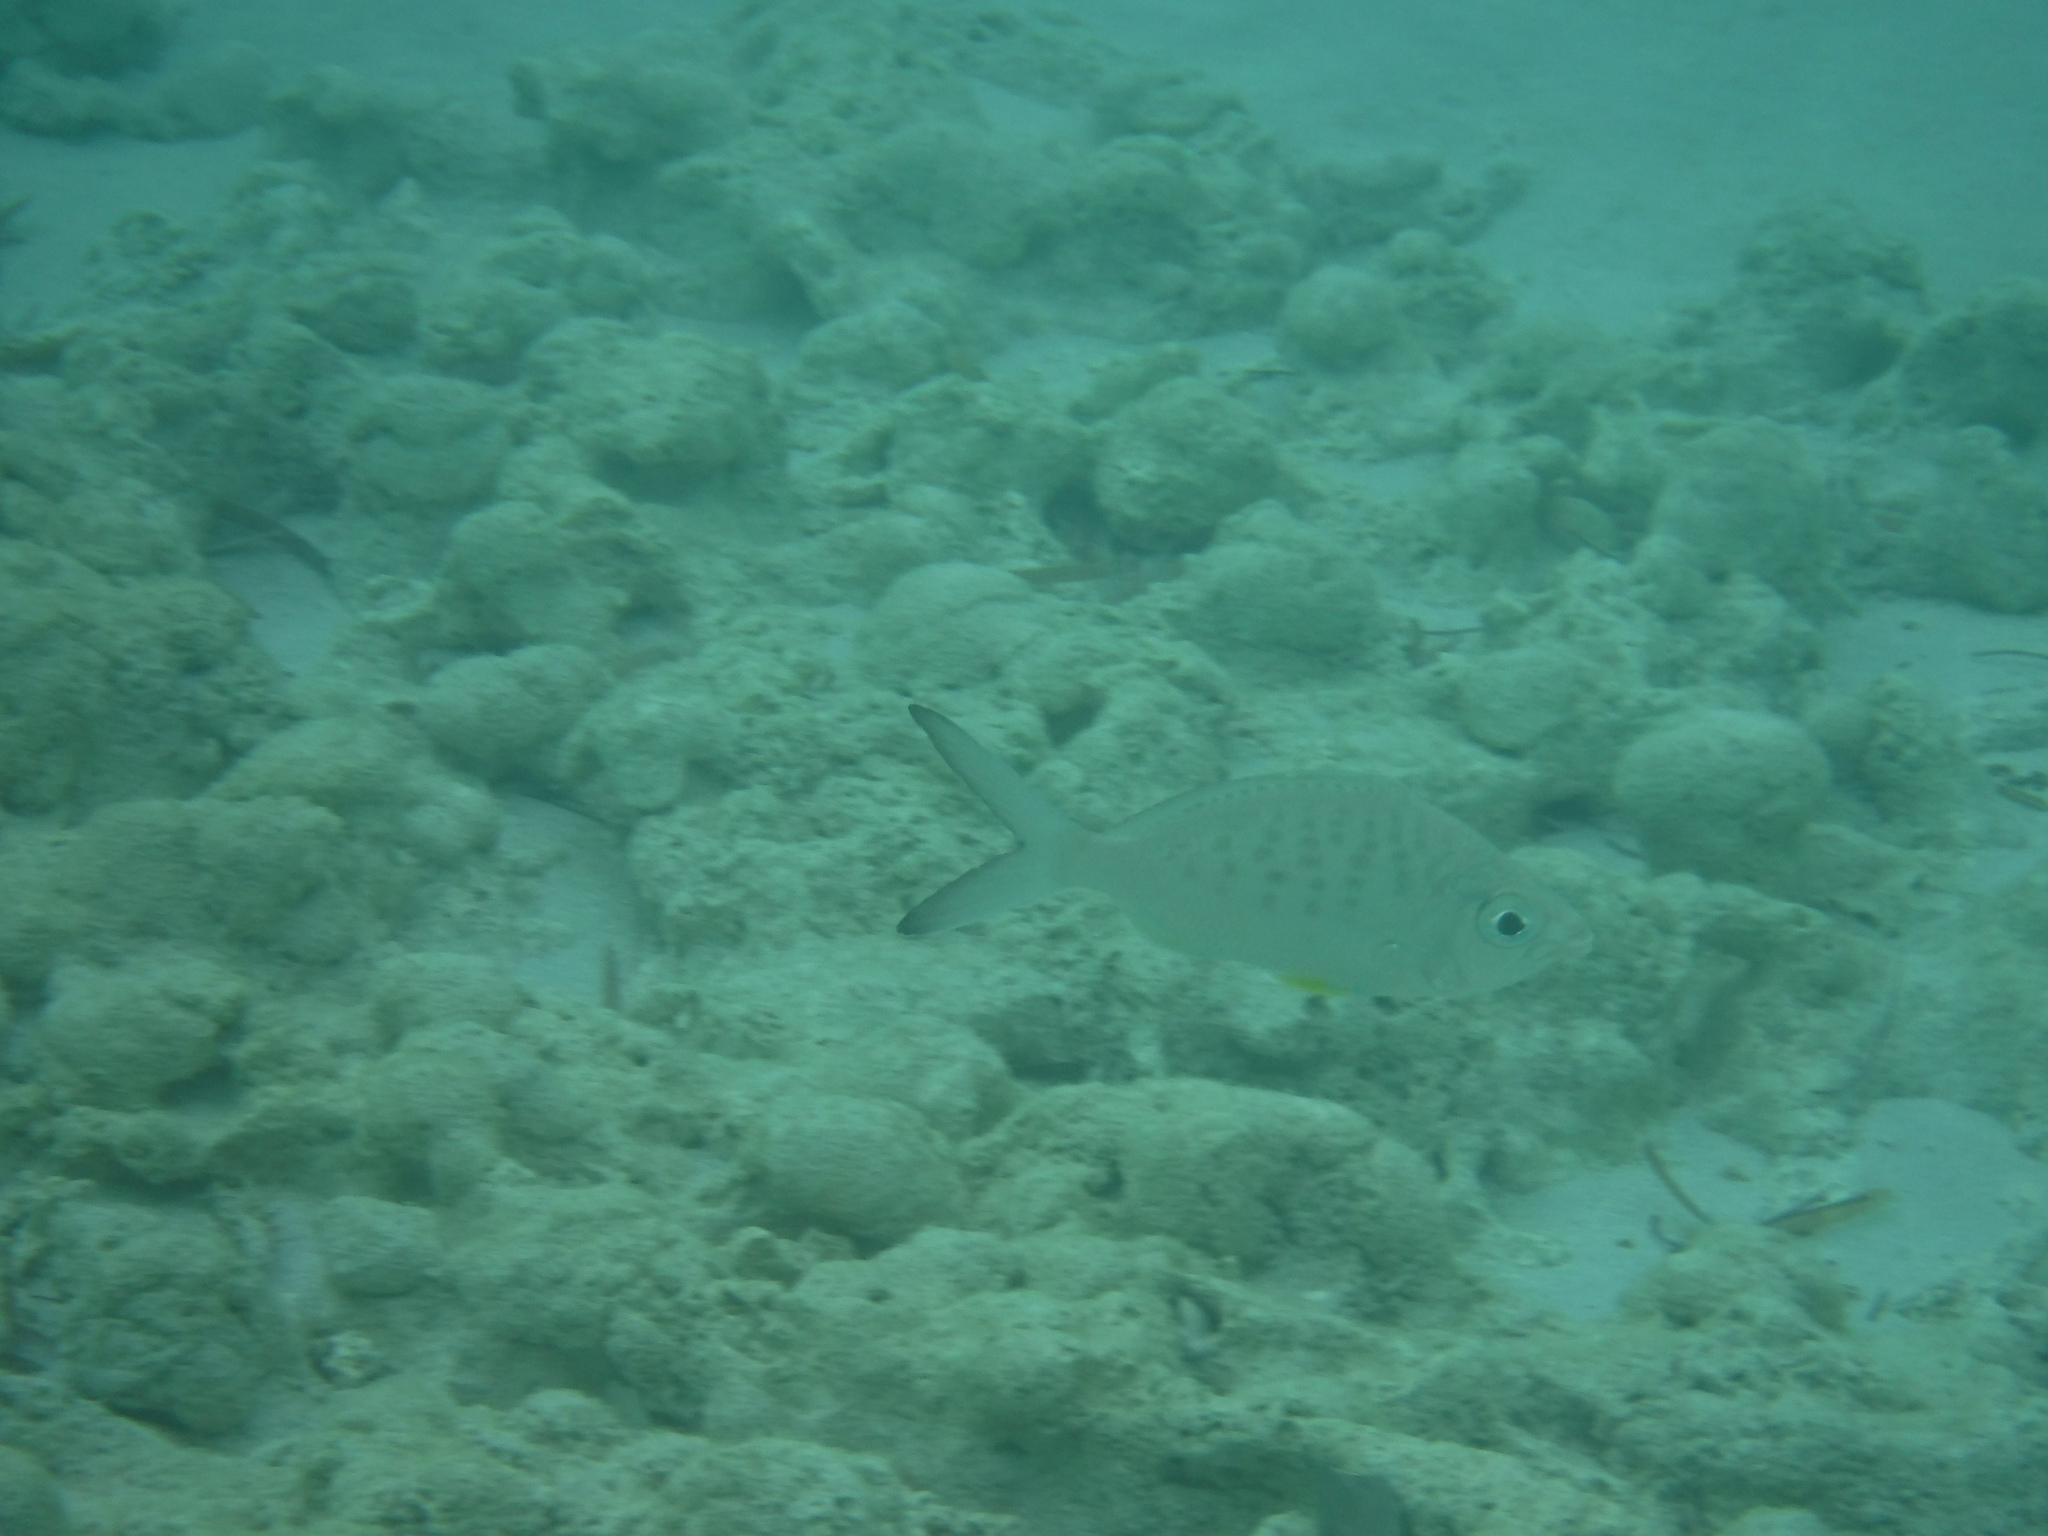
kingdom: Animalia
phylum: Chordata
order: Perciformes
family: Gerreidae
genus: Gerres
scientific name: Gerres cinereus
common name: Hedow
